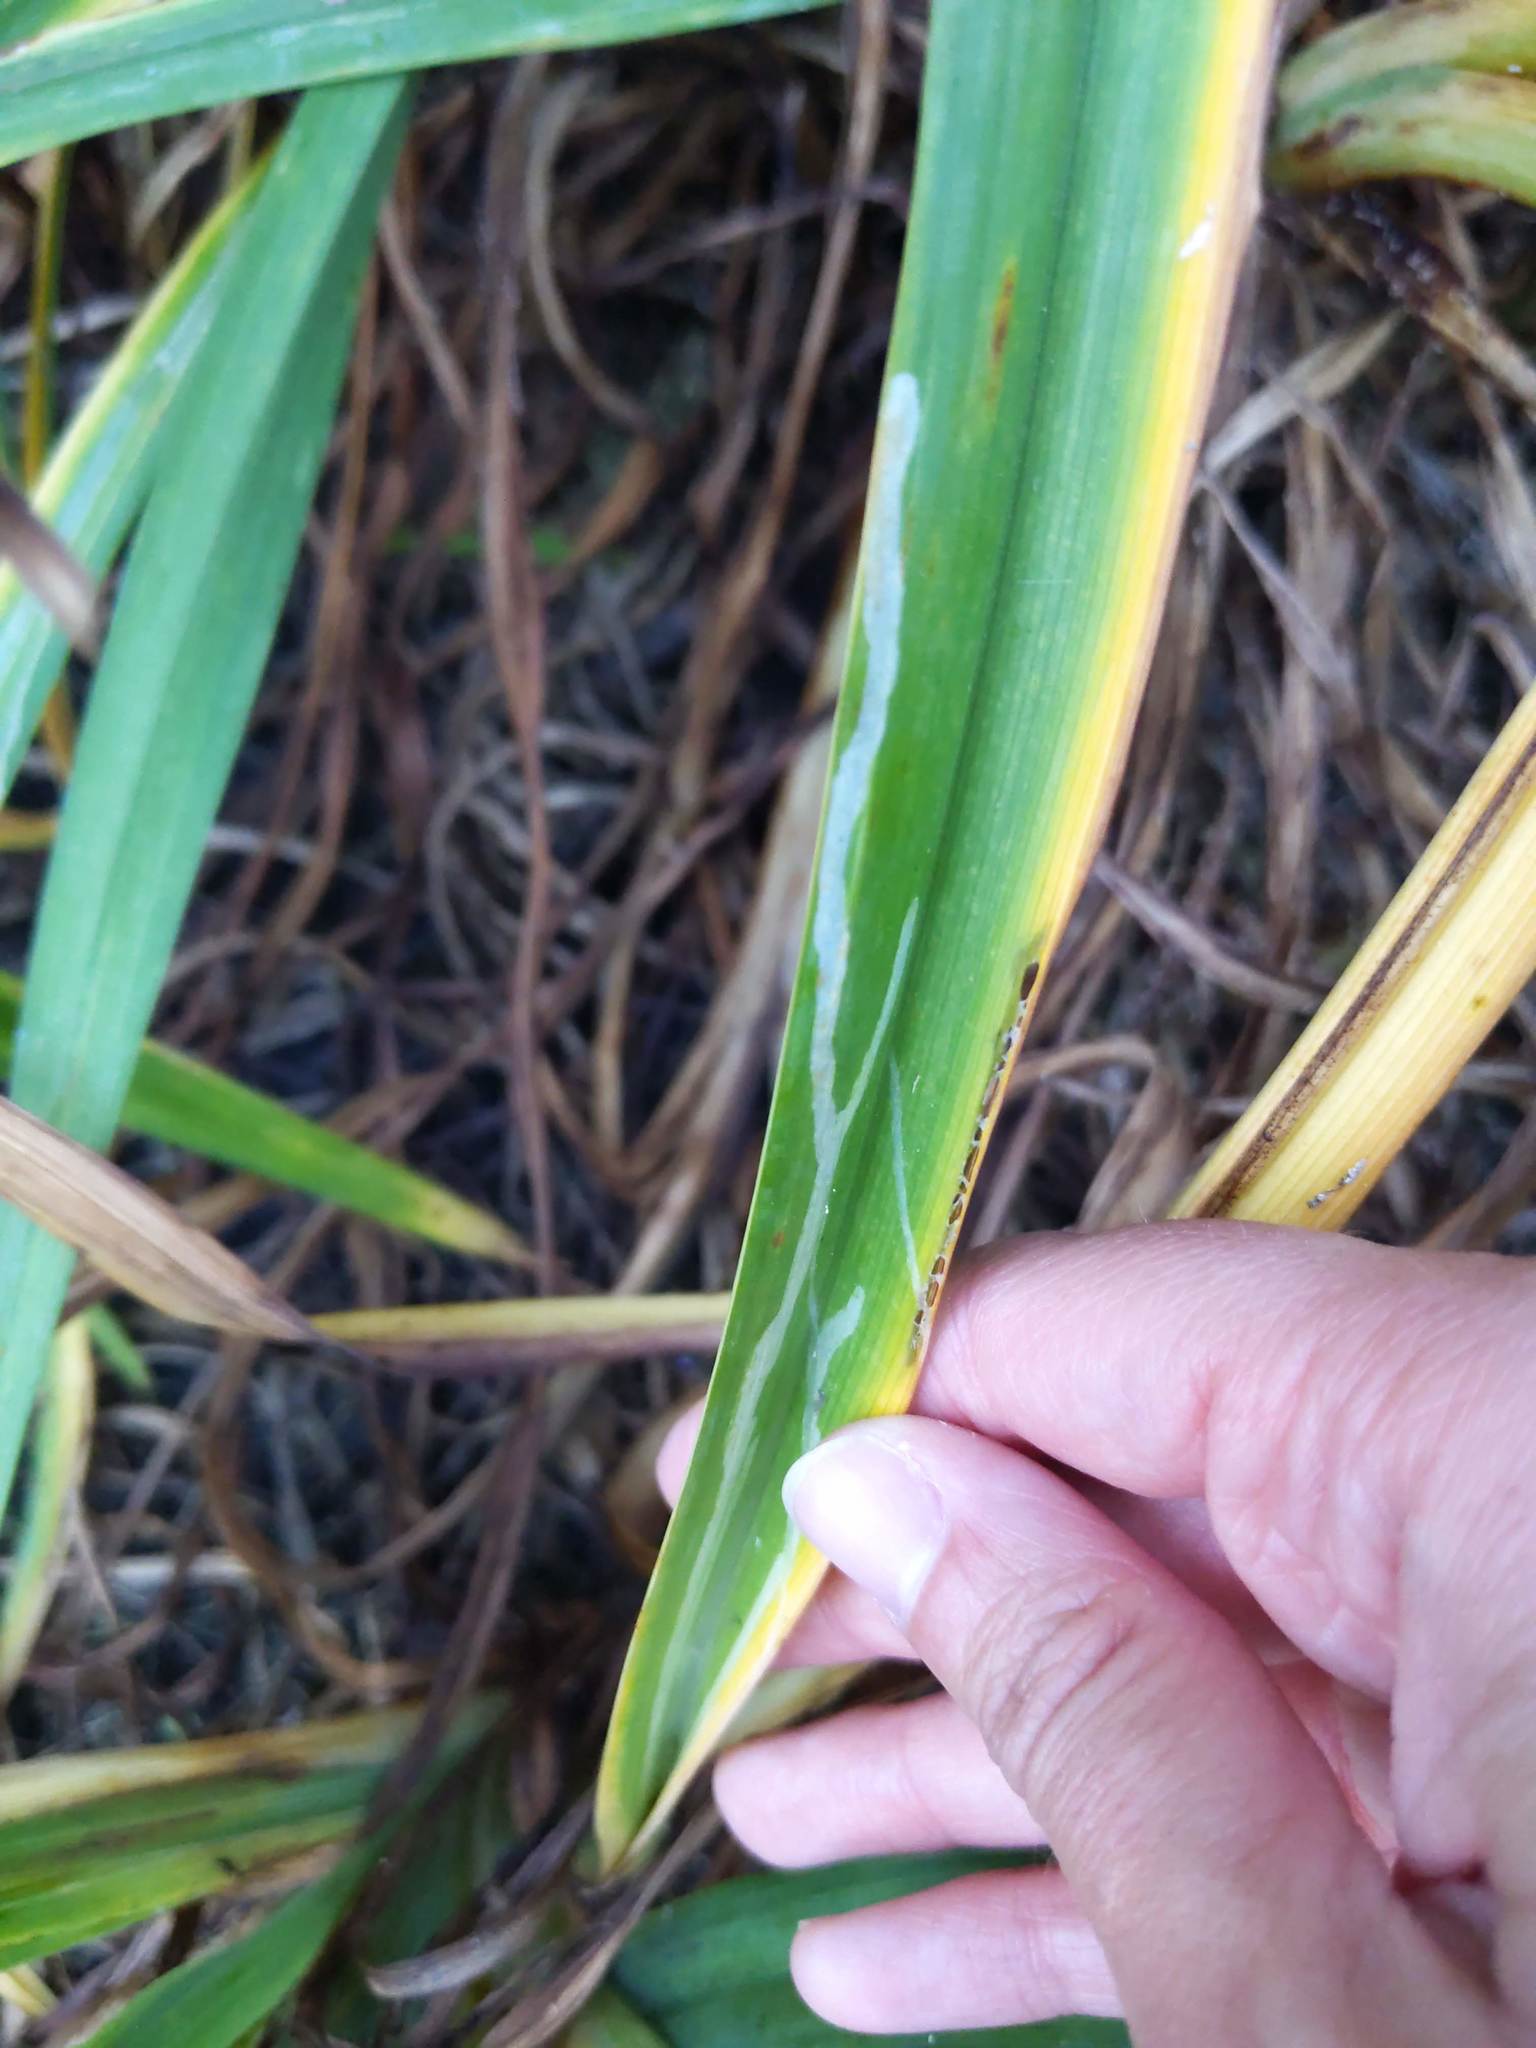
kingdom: Animalia
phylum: Arthropoda
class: Insecta
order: Diptera
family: Agromyzidae
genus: Ophiomyia
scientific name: Ophiomyia kwansonis
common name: Daylily leafminer
